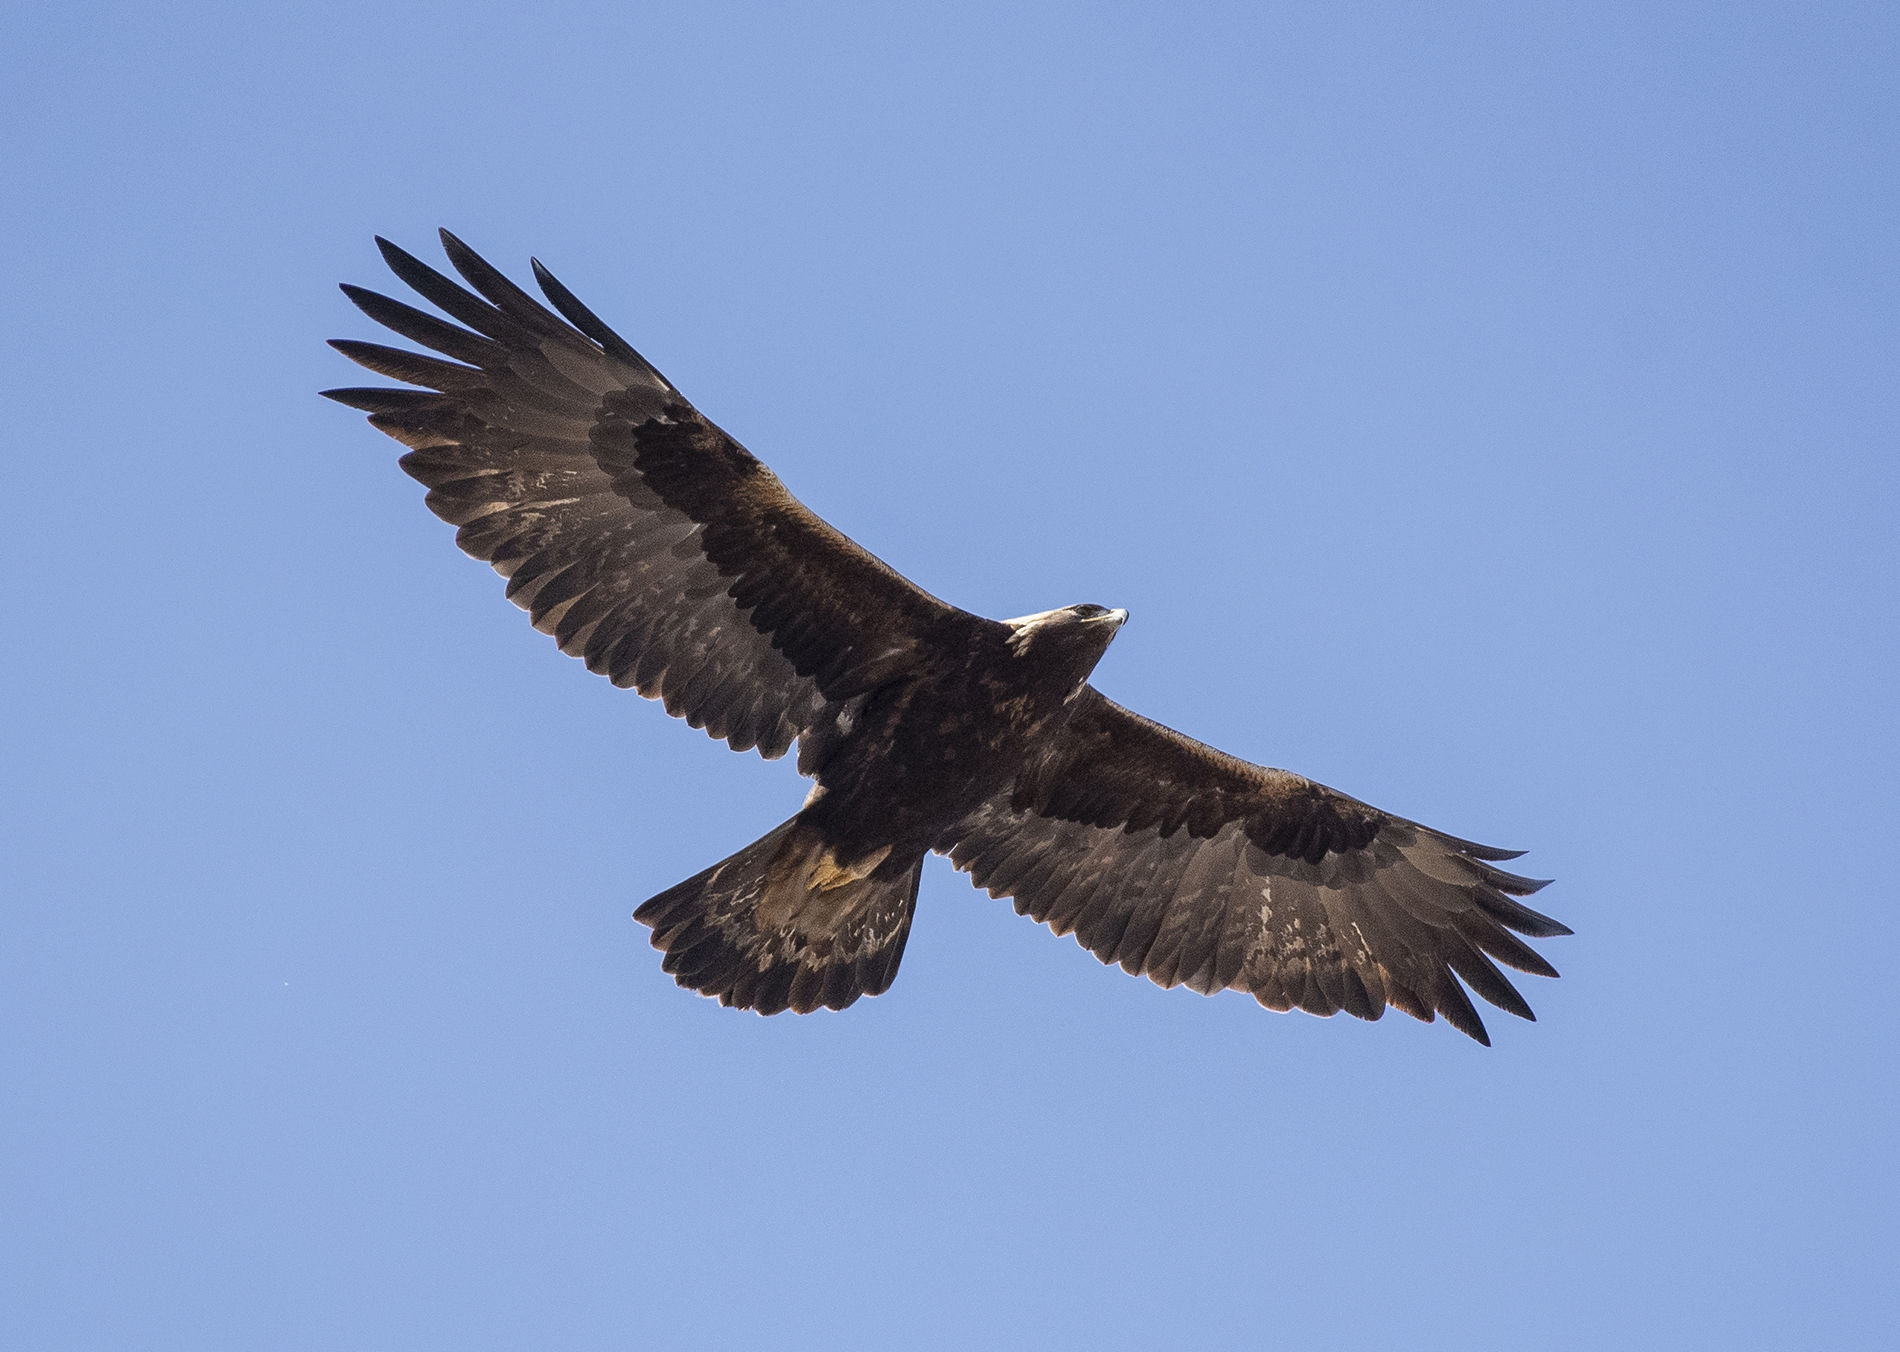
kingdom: Animalia
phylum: Chordata
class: Aves
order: Accipitriformes
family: Accipitridae
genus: Aquila
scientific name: Aquila chrysaetos
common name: Golden eagle
